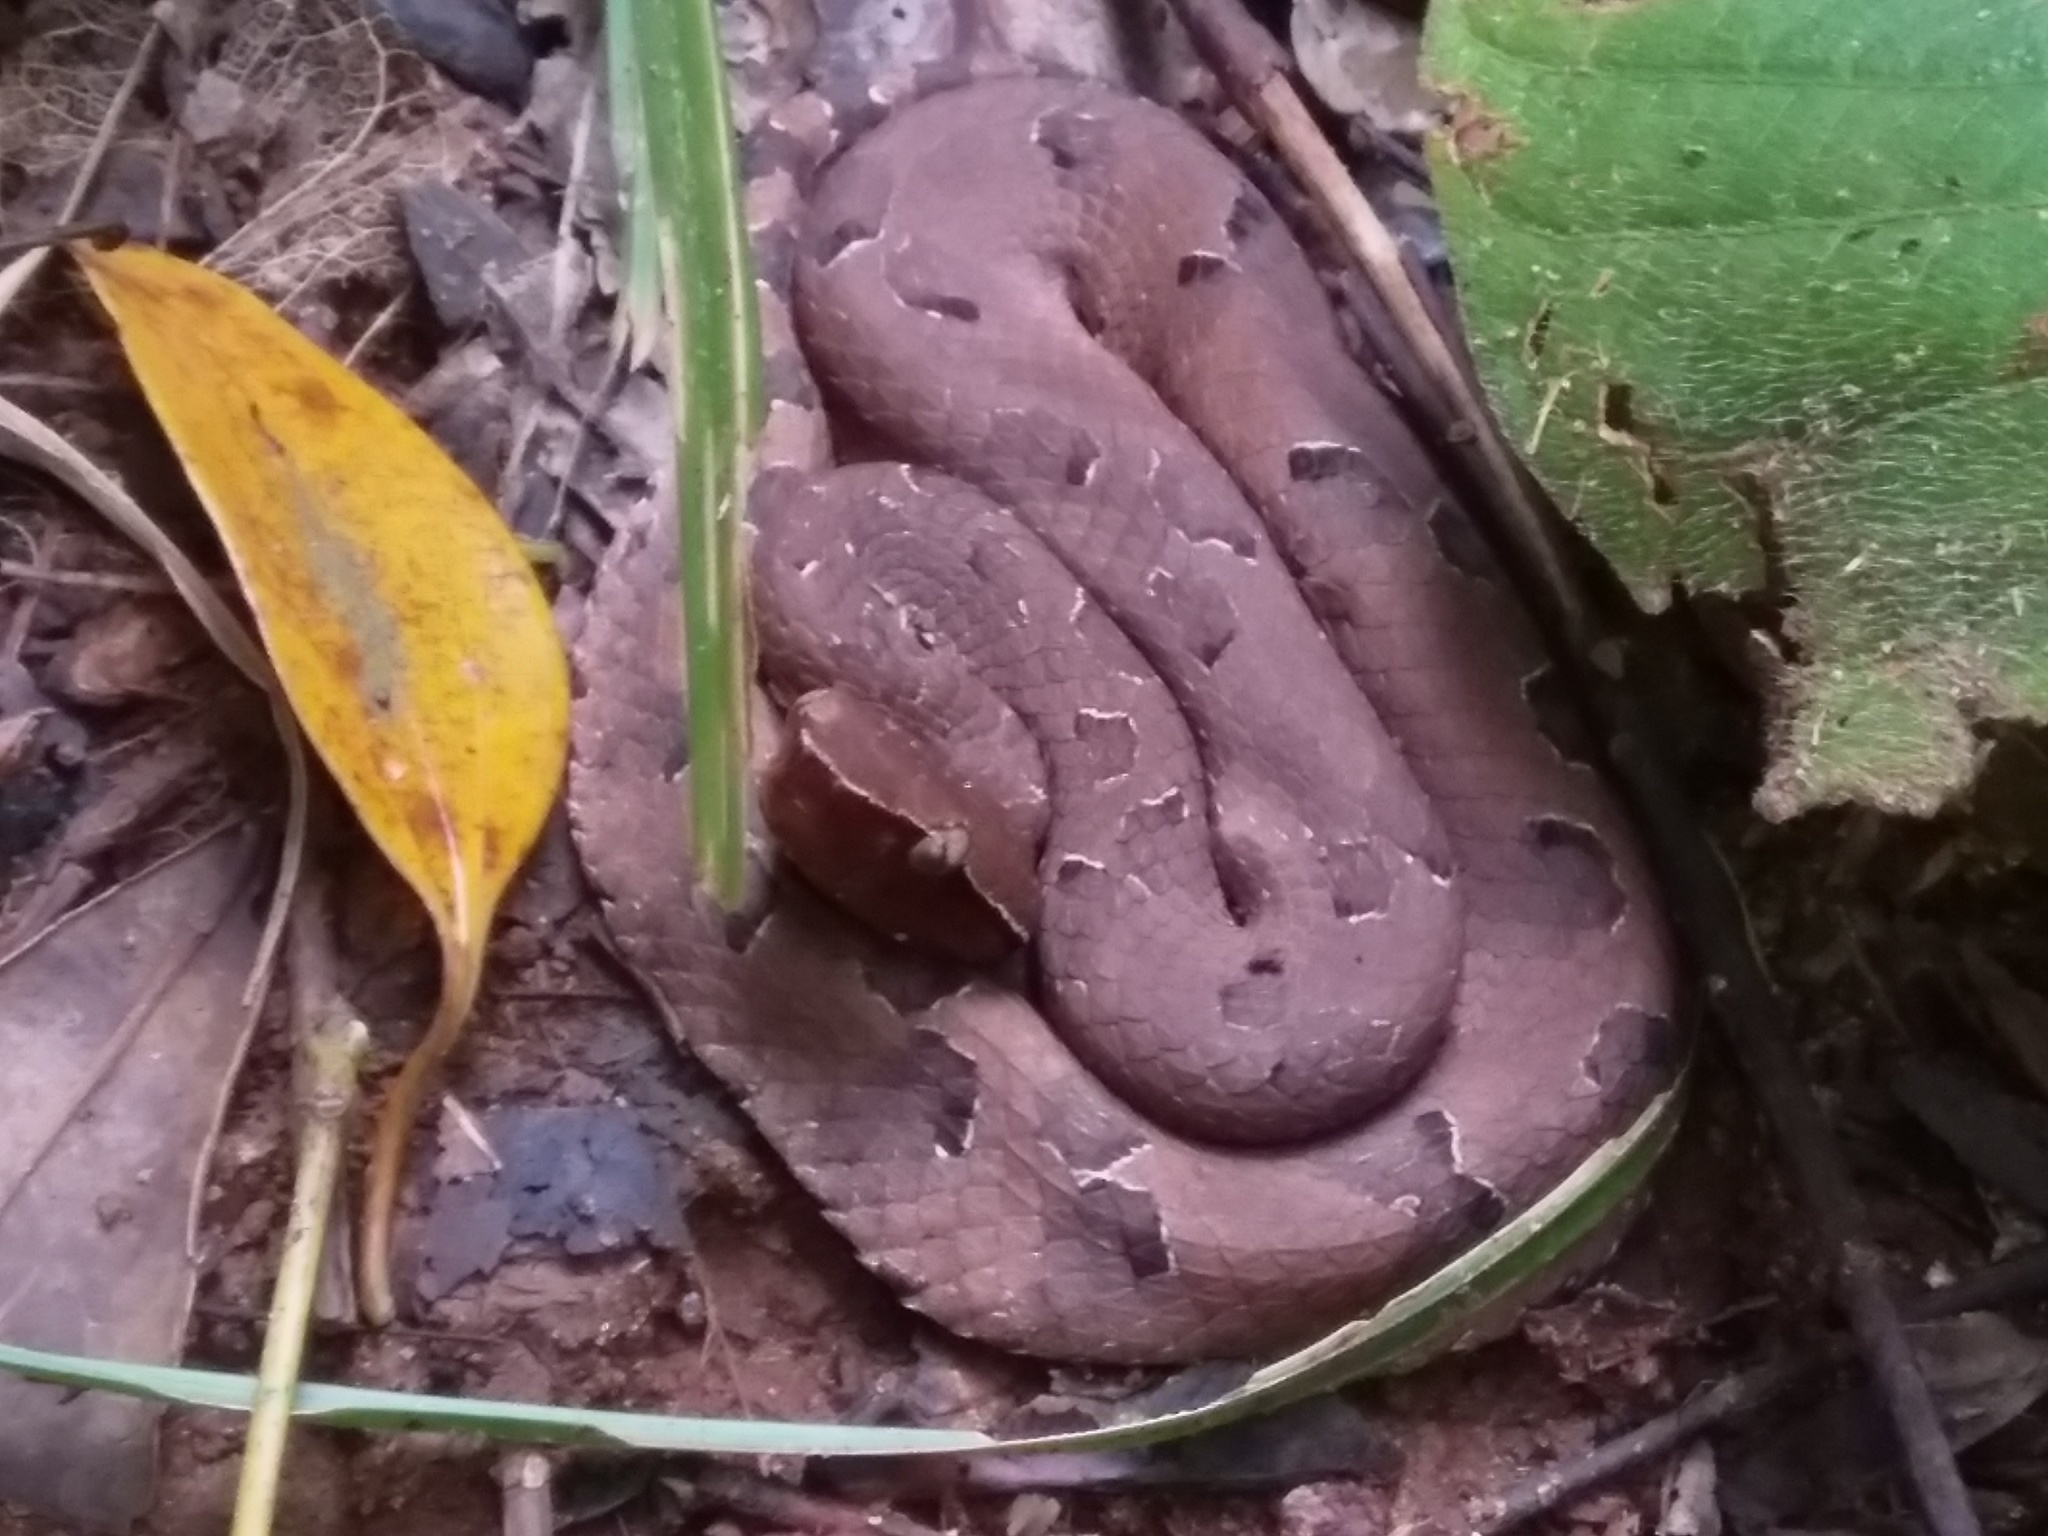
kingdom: Animalia
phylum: Chordata
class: Squamata
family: Viperidae
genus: Hypnale
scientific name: Hypnale hypnale
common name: Hump-nosed moccasin
